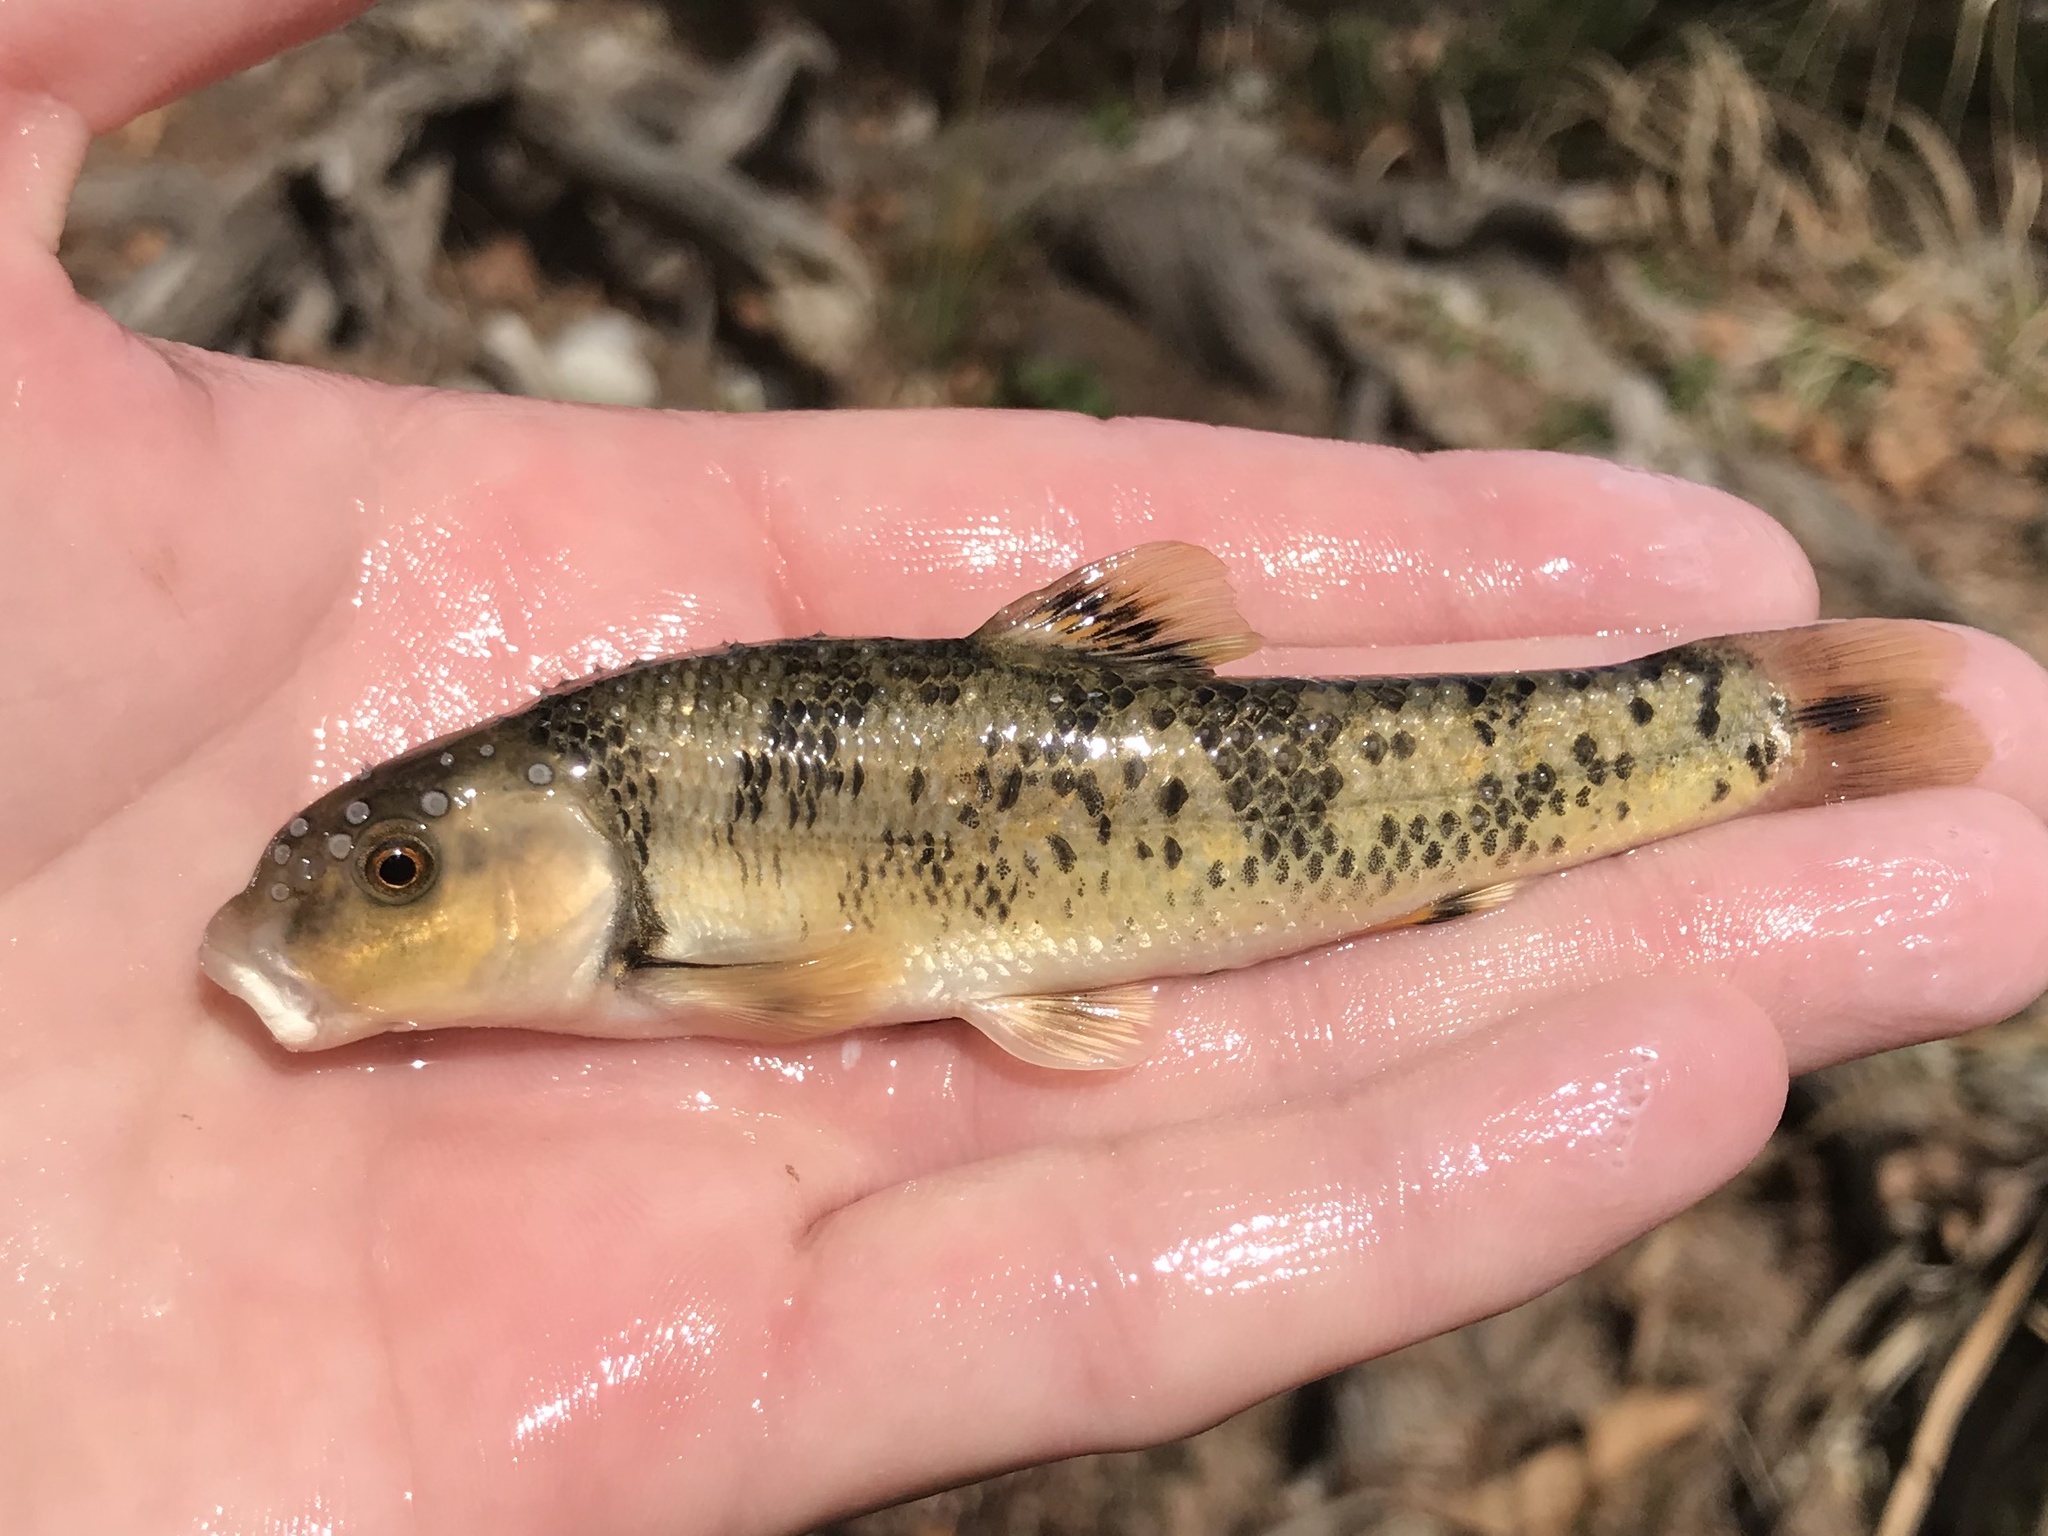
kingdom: Animalia
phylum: Chordata
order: Cypriniformes
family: Cyprinidae
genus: Campostoma
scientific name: Campostoma anomalum
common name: Central stoneroller
